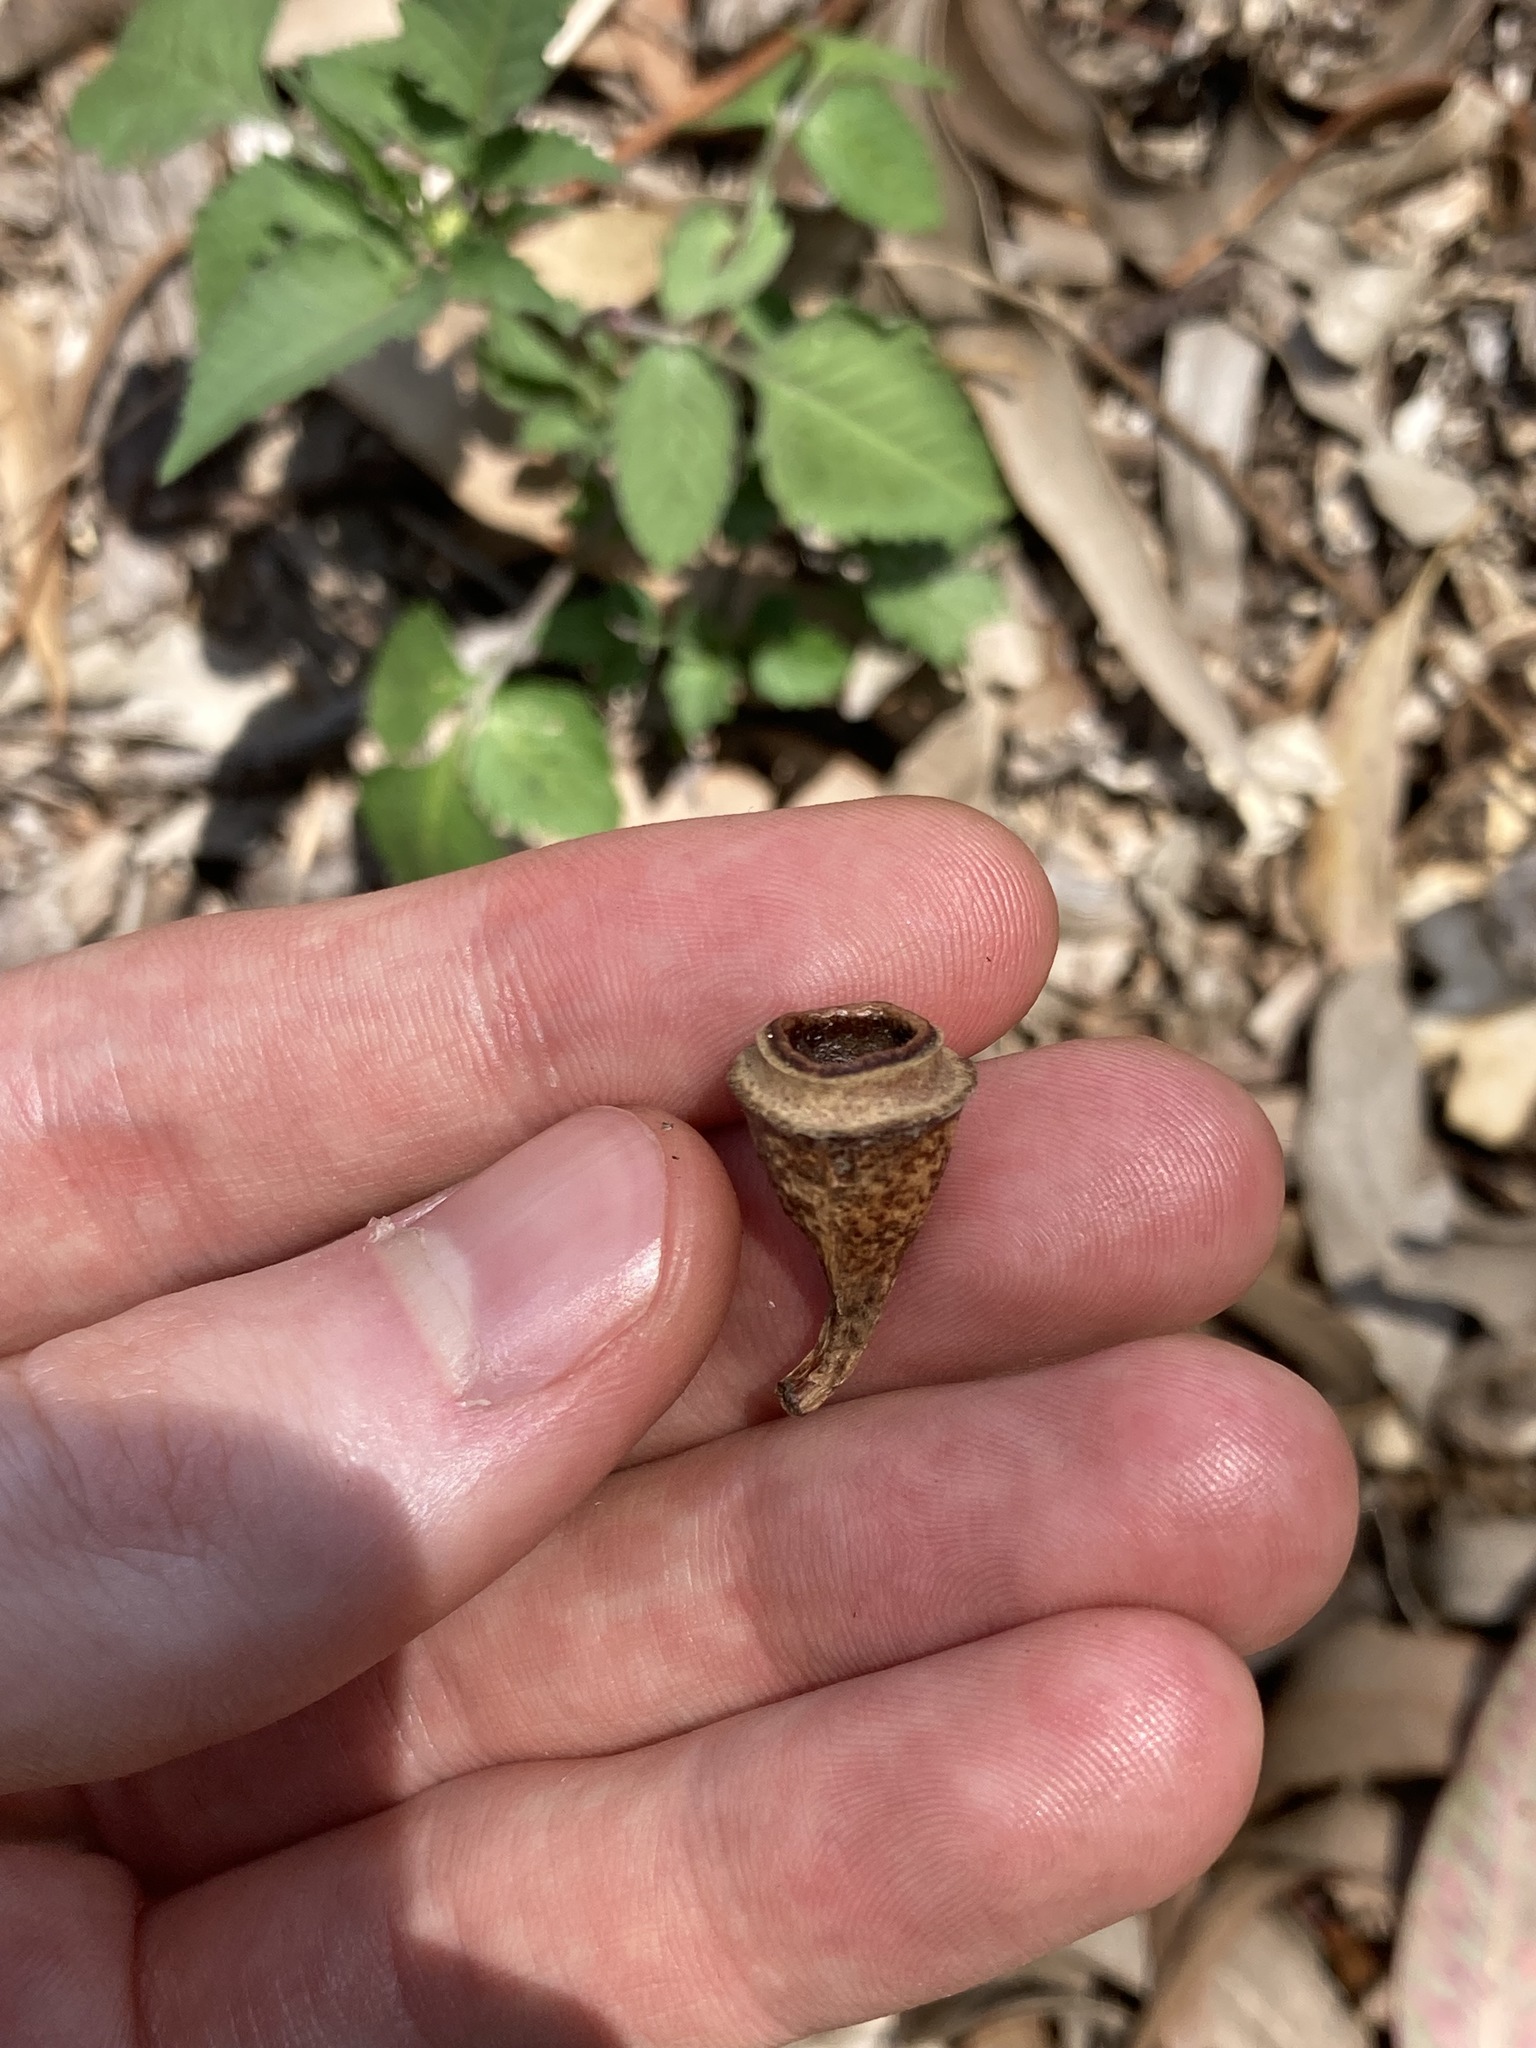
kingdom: Plantae
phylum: Tracheophyta
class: Magnoliopsida
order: Myrtales
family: Myrtaceae
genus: Eucalyptus
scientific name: Eucalyptus longifolia
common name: Woollybutt
